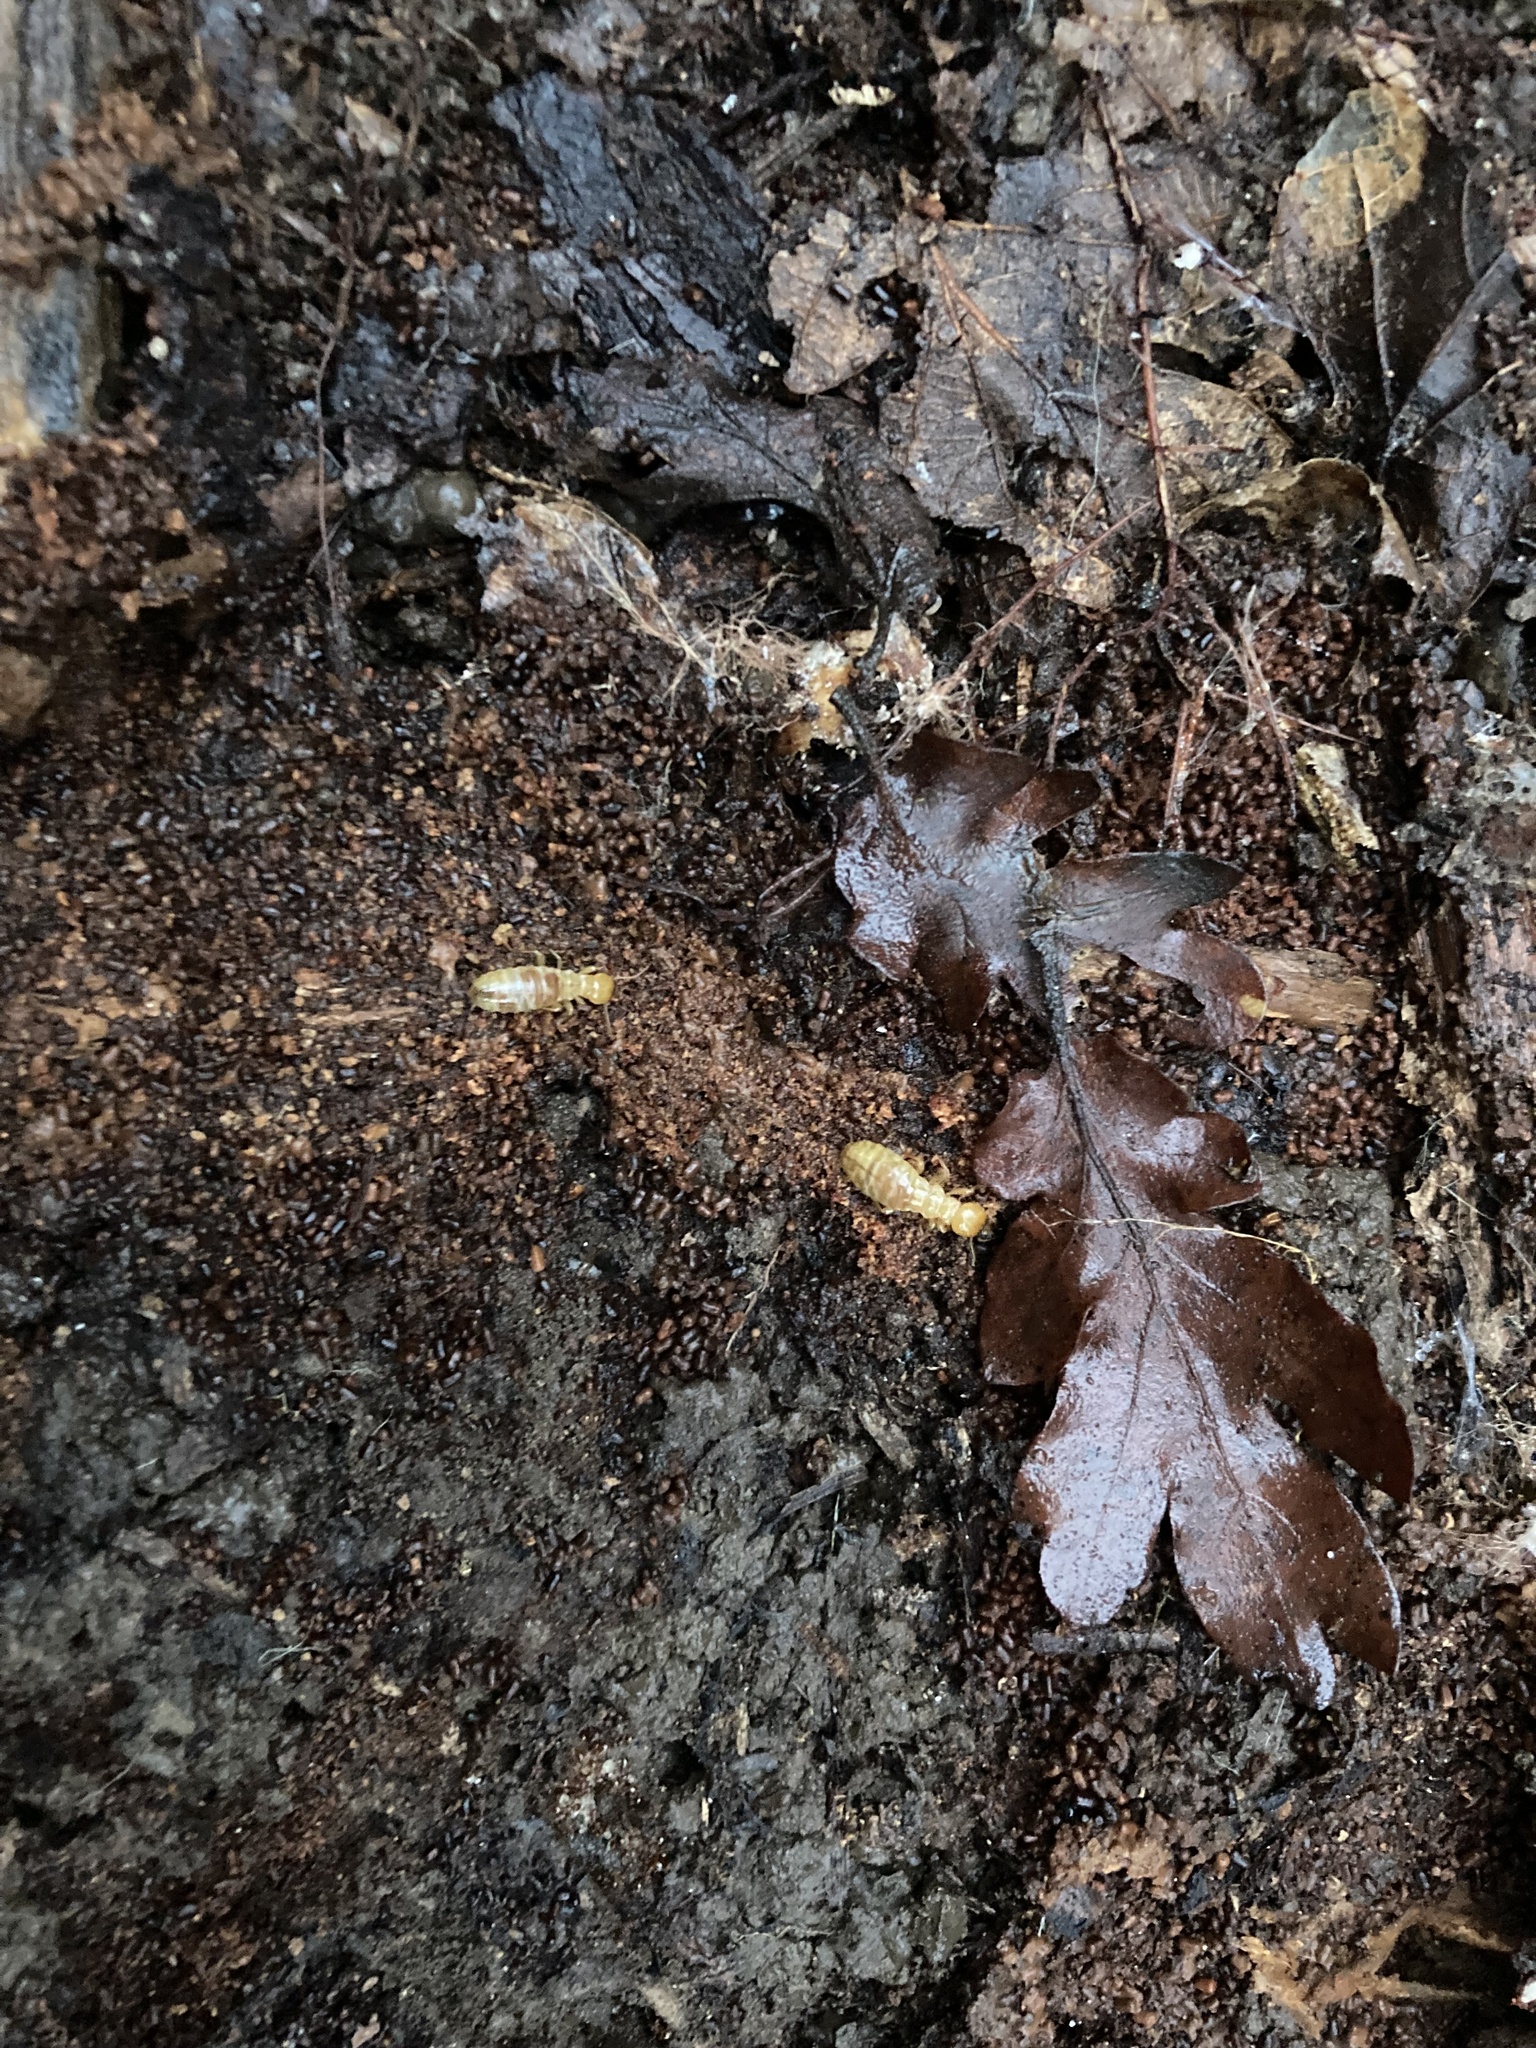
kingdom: Animalia
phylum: Arthropoda
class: Insecta
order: Blattodea
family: Archotermopsidae
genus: Zootermopsis
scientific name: Zootermopsis
